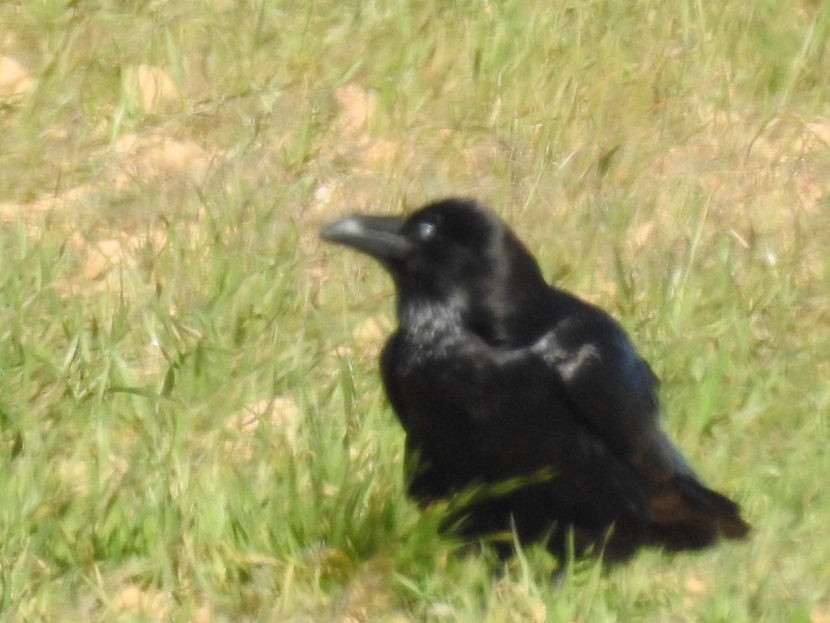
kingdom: Animalia
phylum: Chordata
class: Aves
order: Passeriformes
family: Corvidae
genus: Corvus
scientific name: Corvus corax
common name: Common raven
